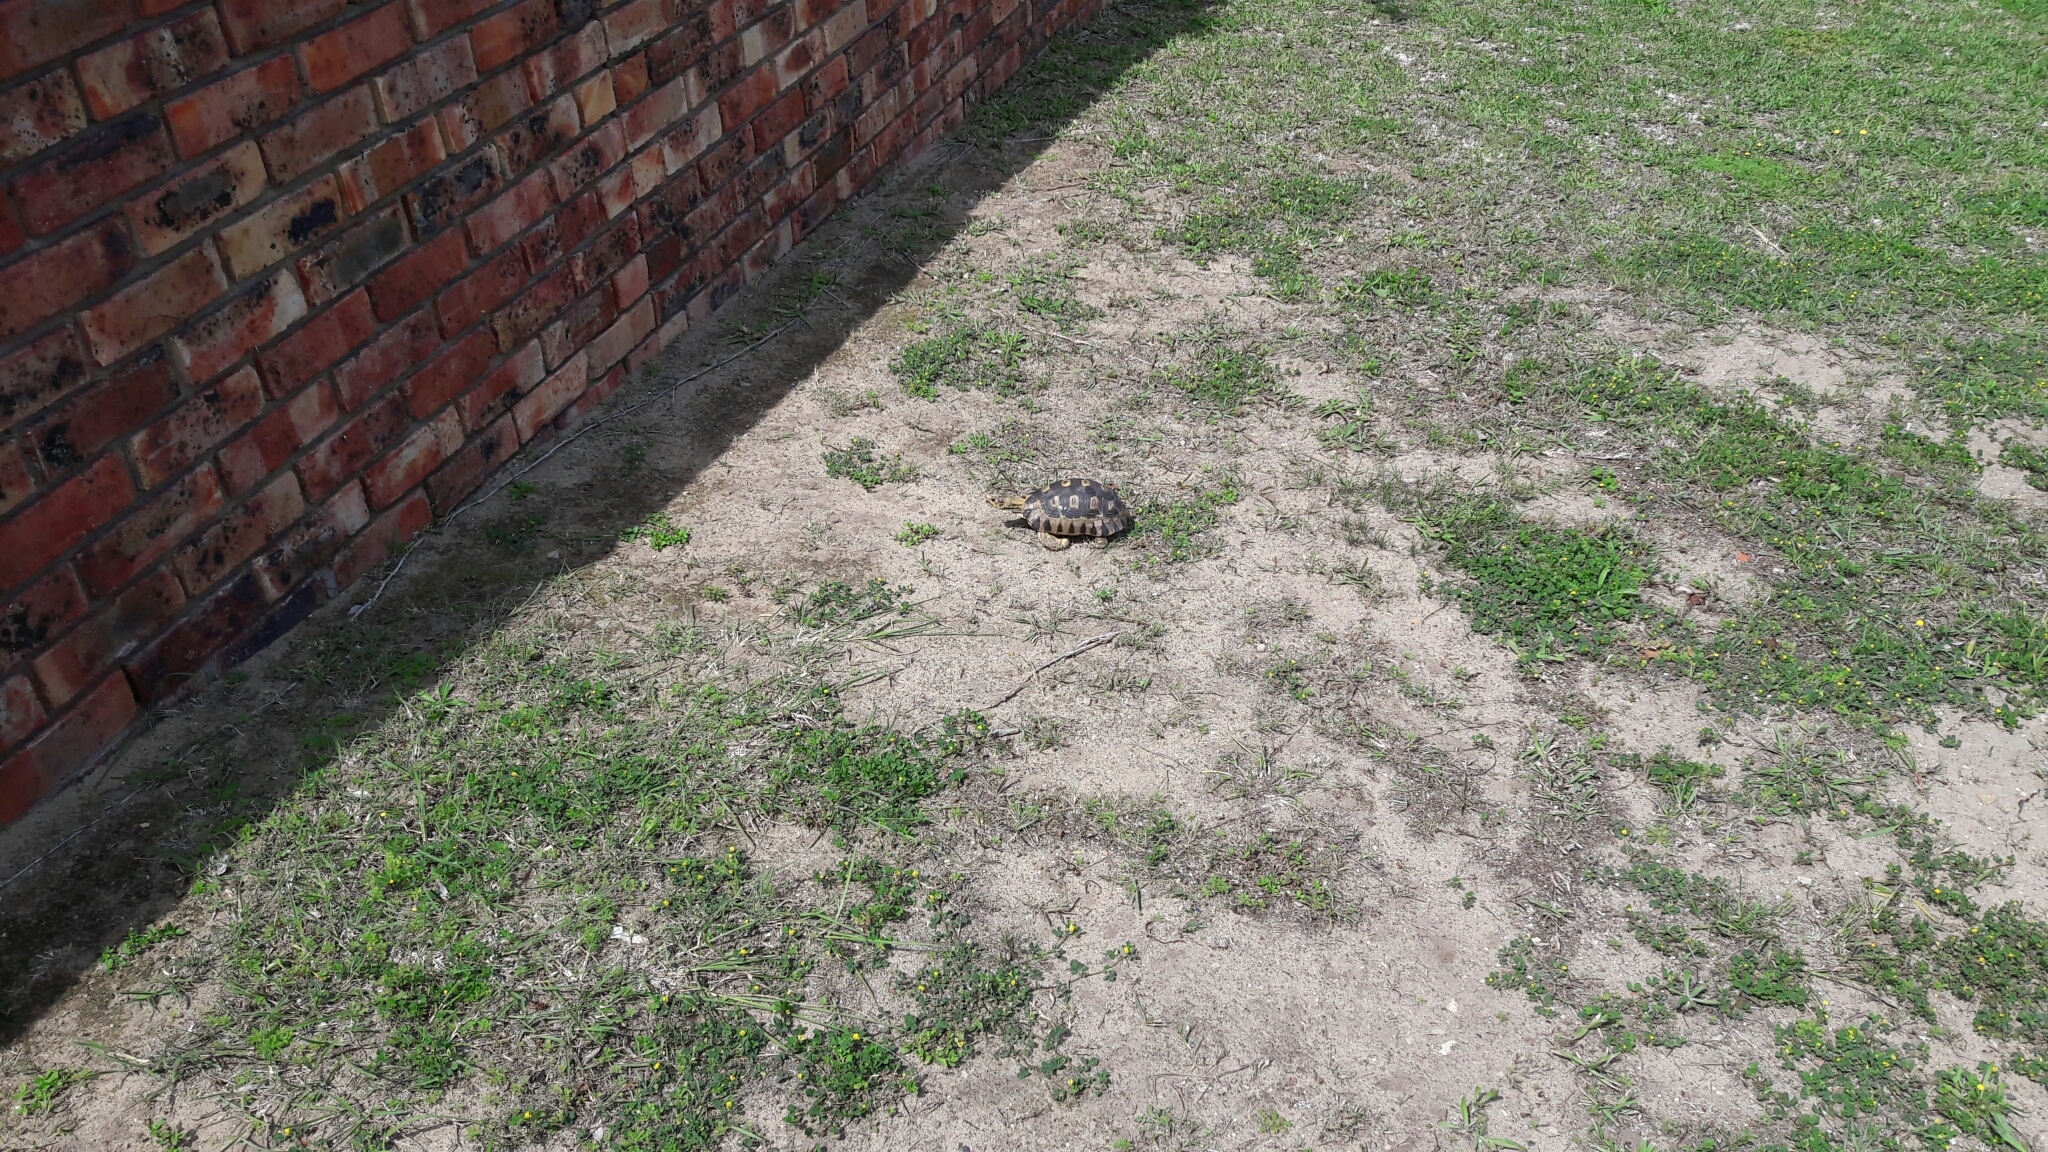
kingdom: Animalia
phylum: Chordata
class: Testudines
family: Testudinidae
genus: Chersina
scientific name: Chersina angulata
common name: South african bowsprit tortoise
